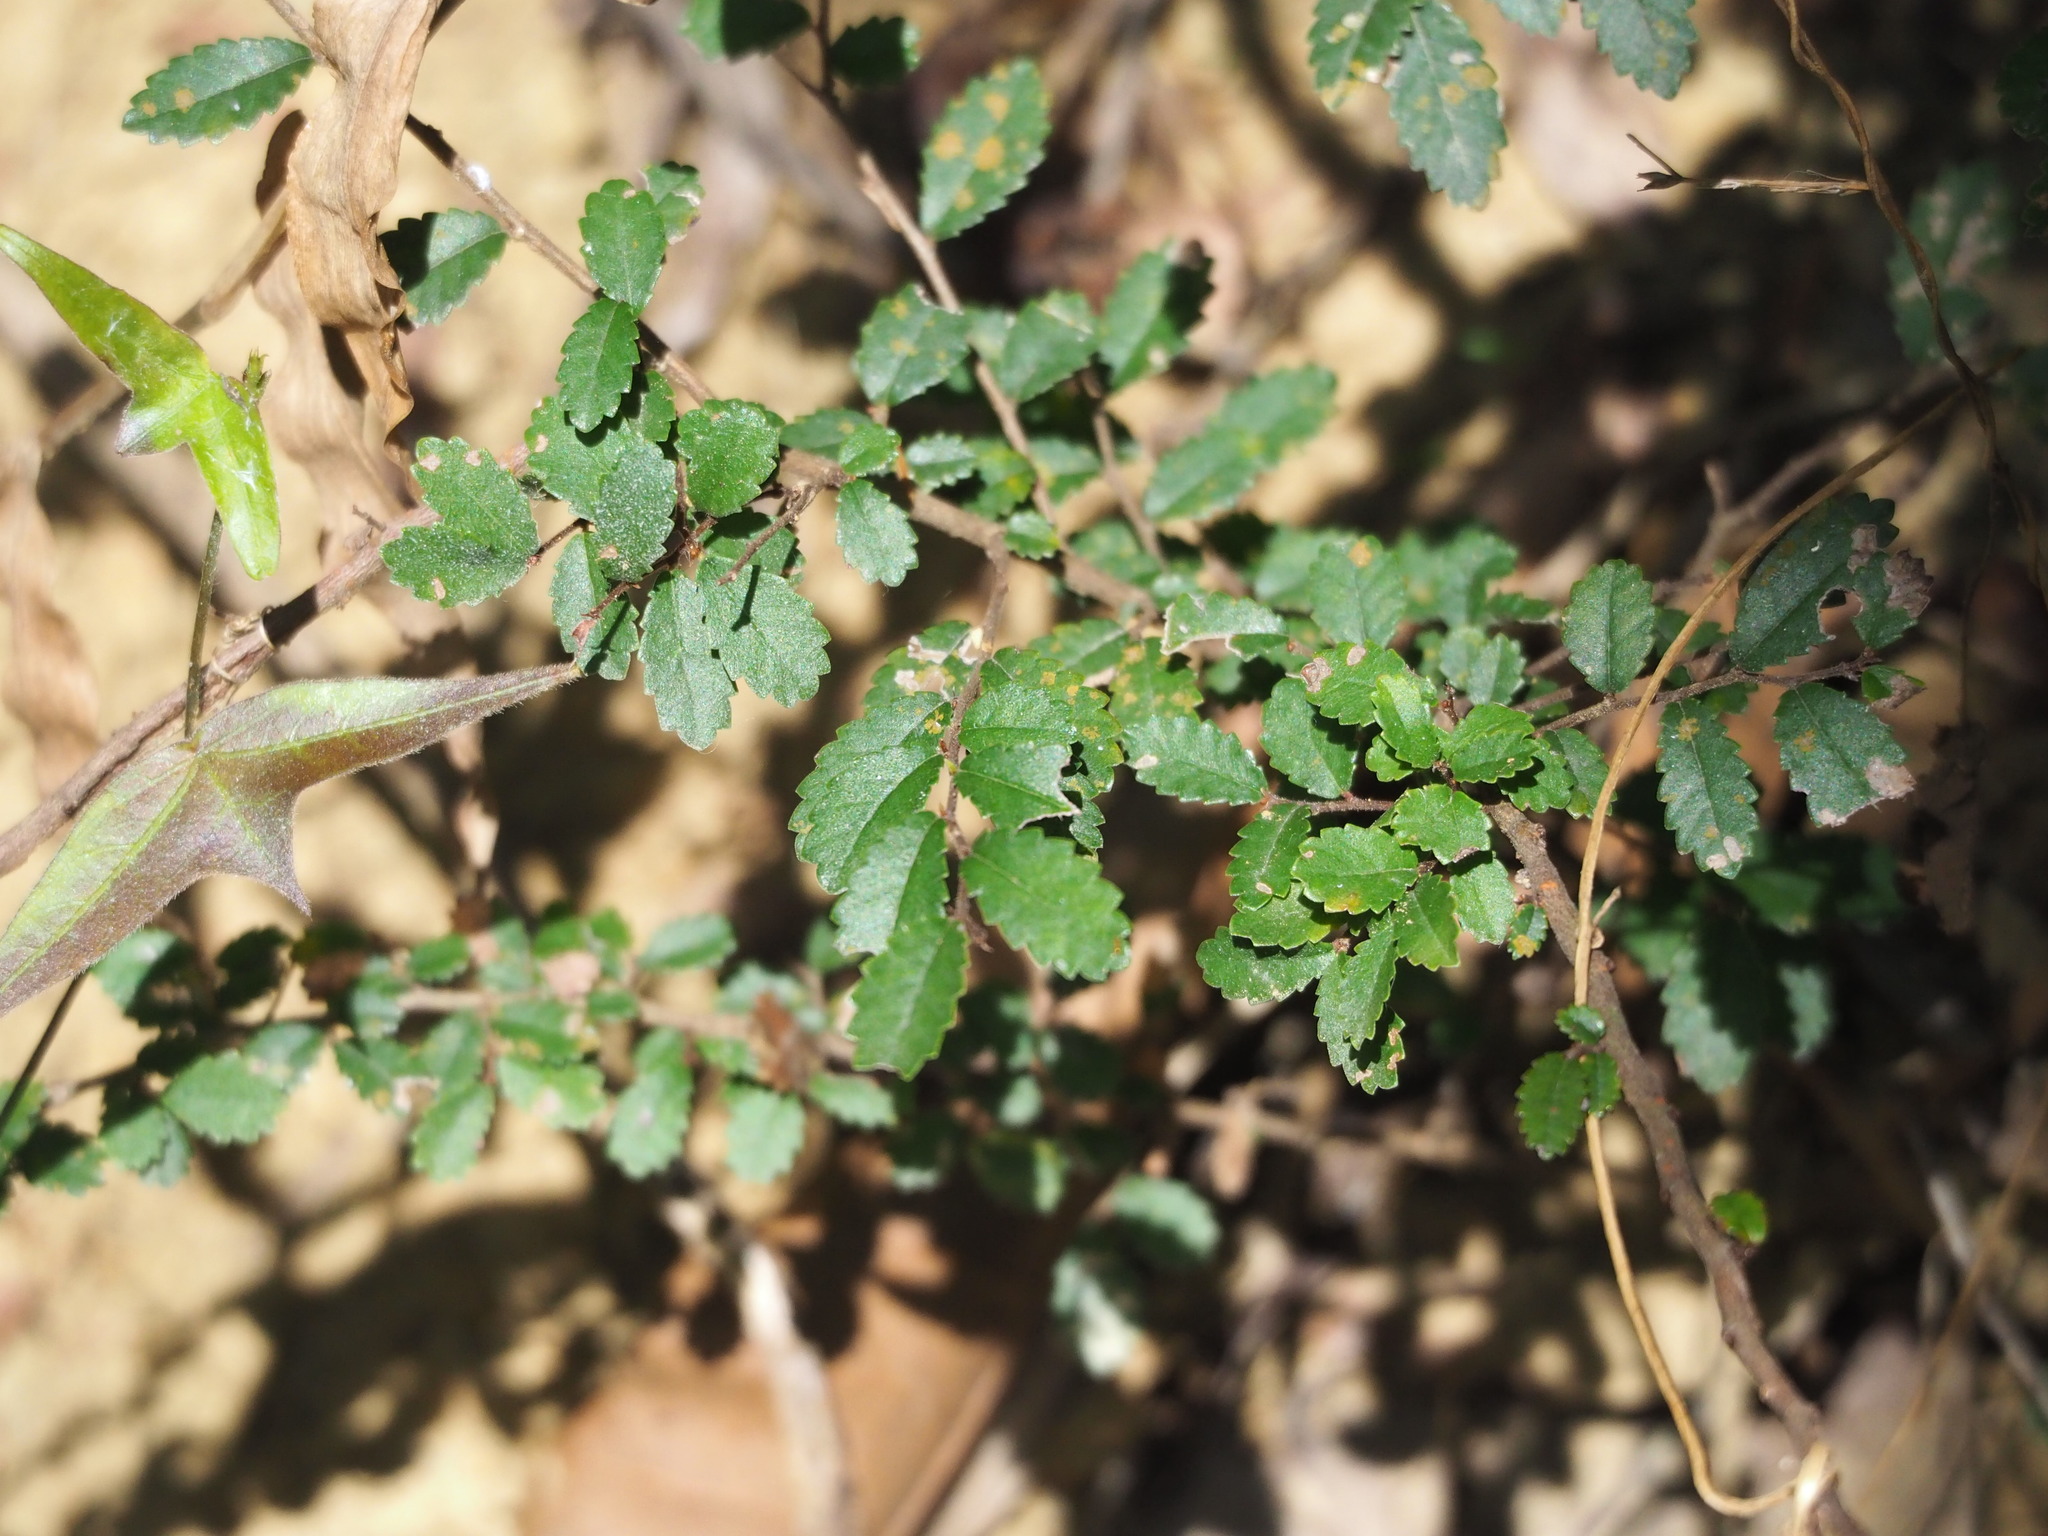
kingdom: Plantae
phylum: Tracheophyta
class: Magnoliopsida
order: Rosales
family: Ulmaceae
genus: Ulmus
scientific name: Ulmus parvifolia
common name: Chinese elm
